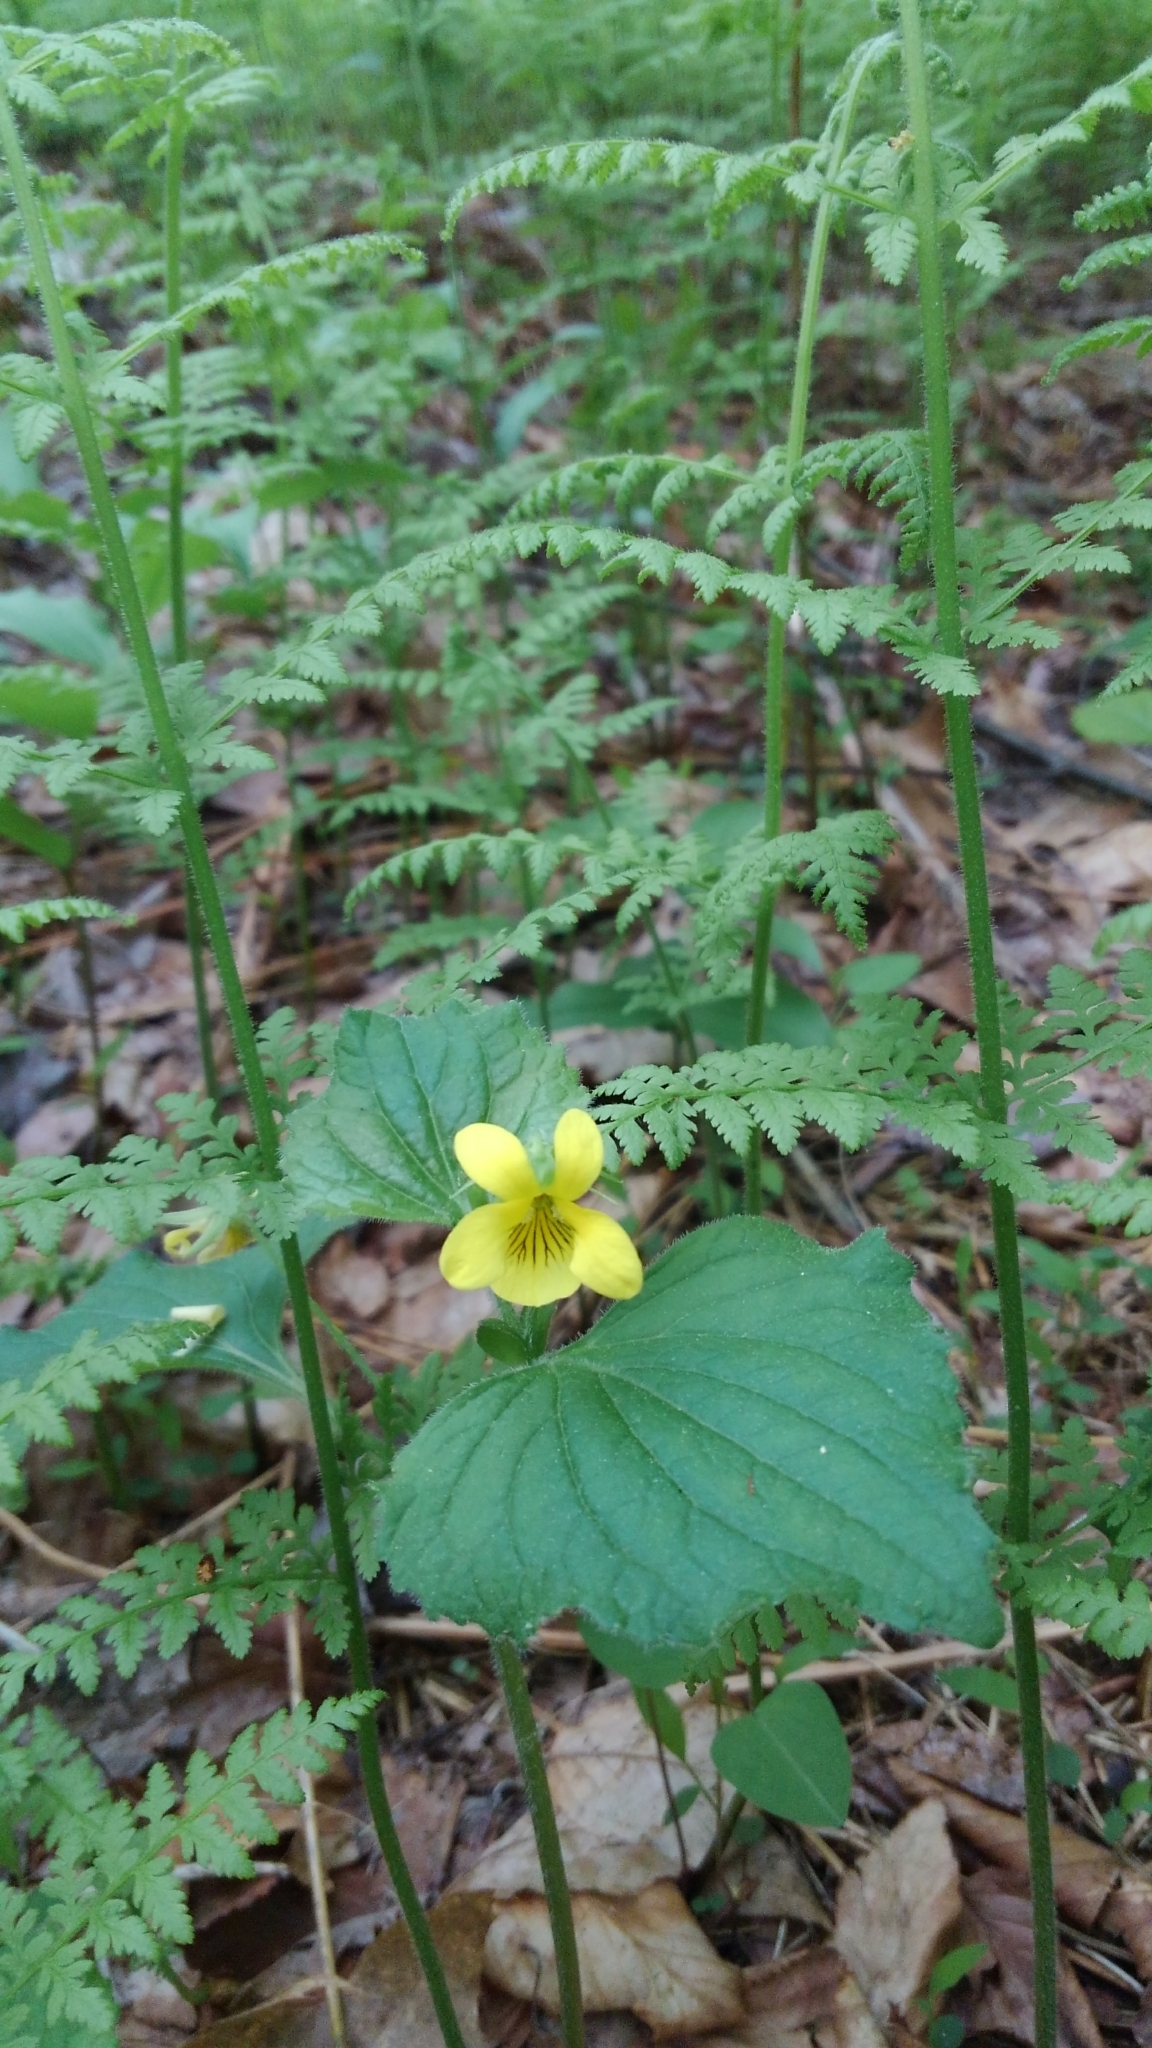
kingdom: Plantae
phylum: Tracheophyta
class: Magnoliopsida
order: Malpighiales
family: Violaceae
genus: Viola
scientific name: Viola eriocarpa
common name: Smooth yellow violet
